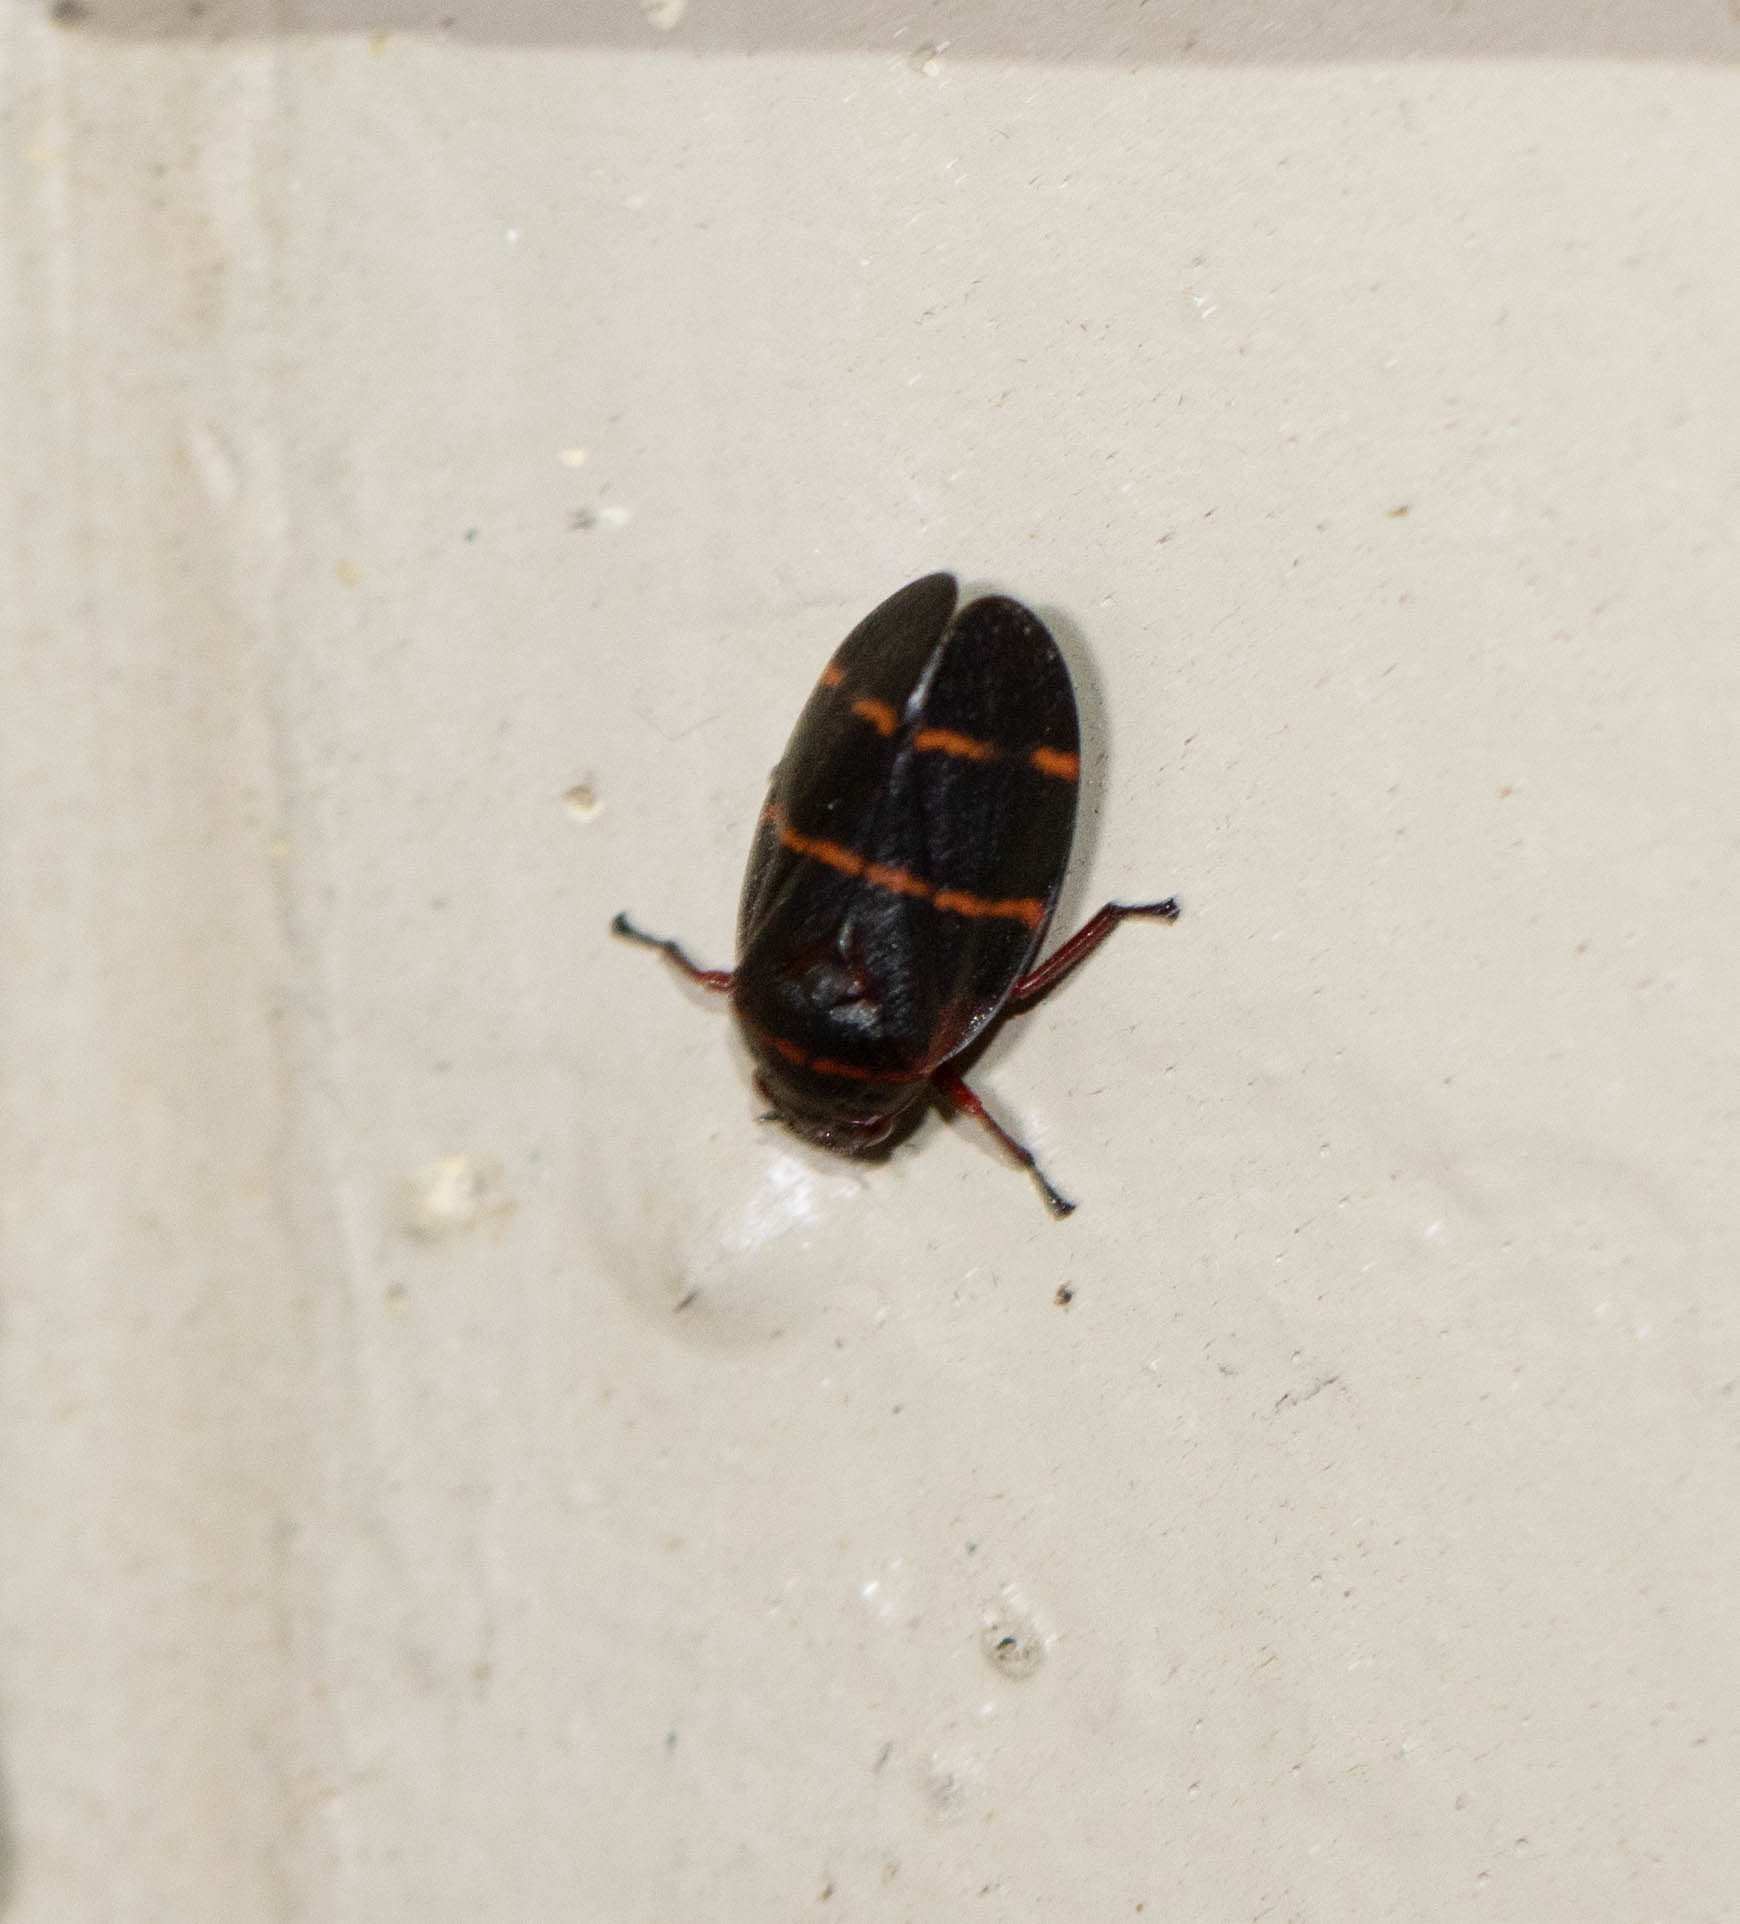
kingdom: Animalia
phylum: Arthropoda
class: Insecta
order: Hemiptera
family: Cercopidae
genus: Prosapia
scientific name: Prosapia bicincta
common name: Twolined spittlebug
